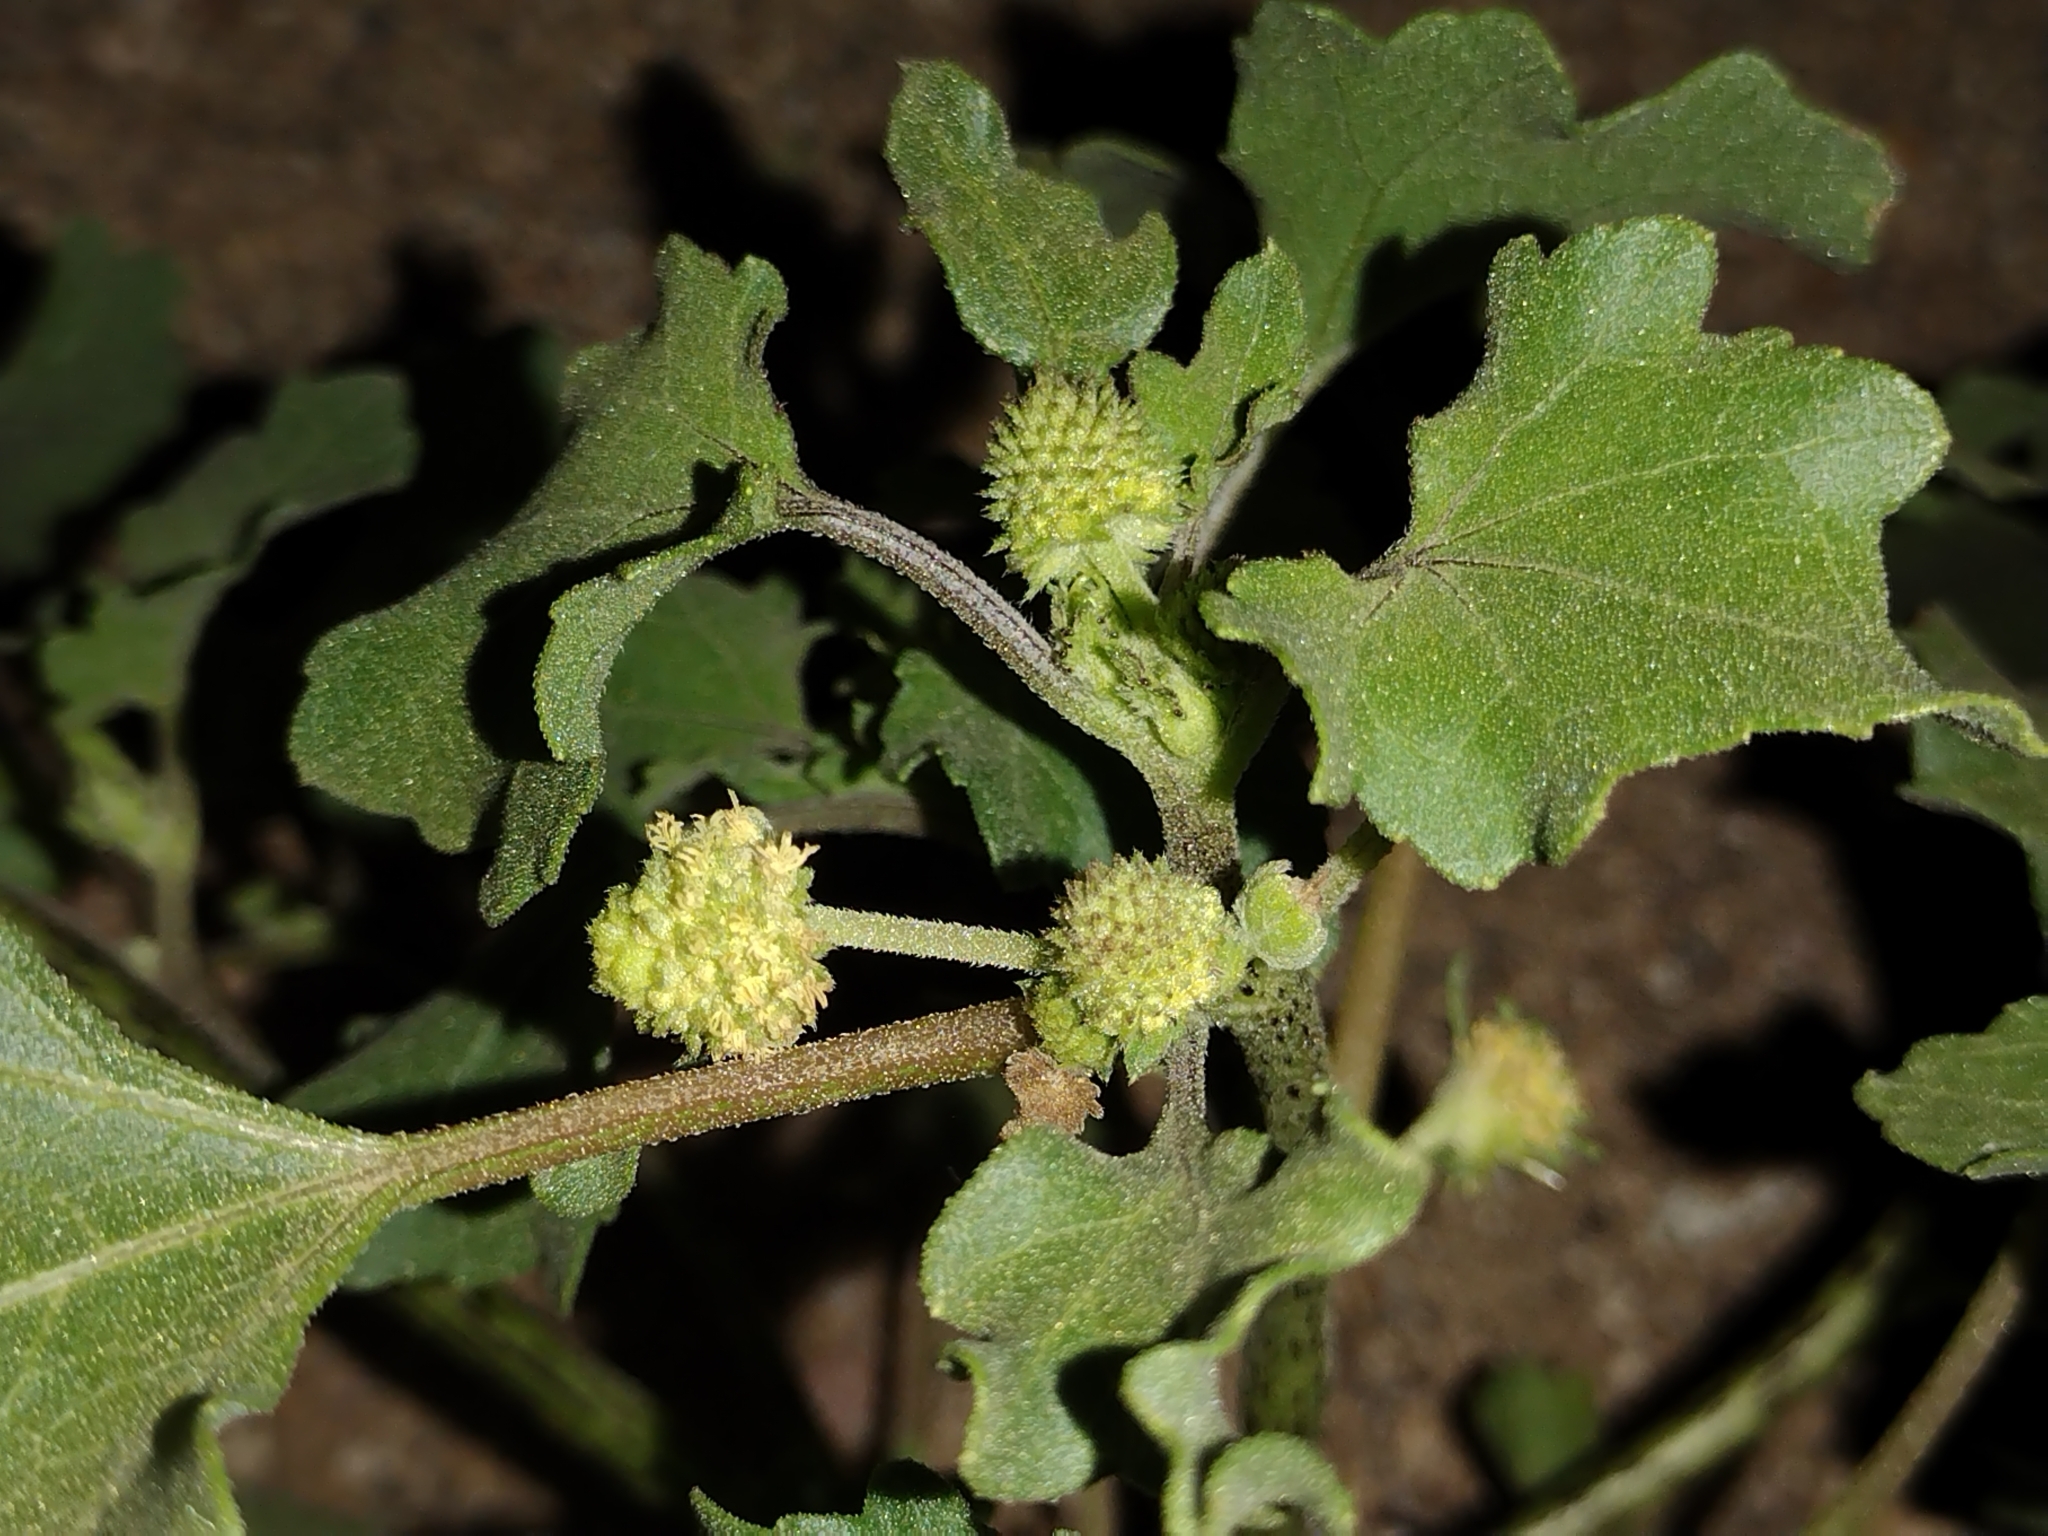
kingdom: Plantae
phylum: Tracheophyta
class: Magnoliopsida
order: Asterales
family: Asteraceae
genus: Xanthium
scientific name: Xanthium strumarium
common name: Rough cocklebur
